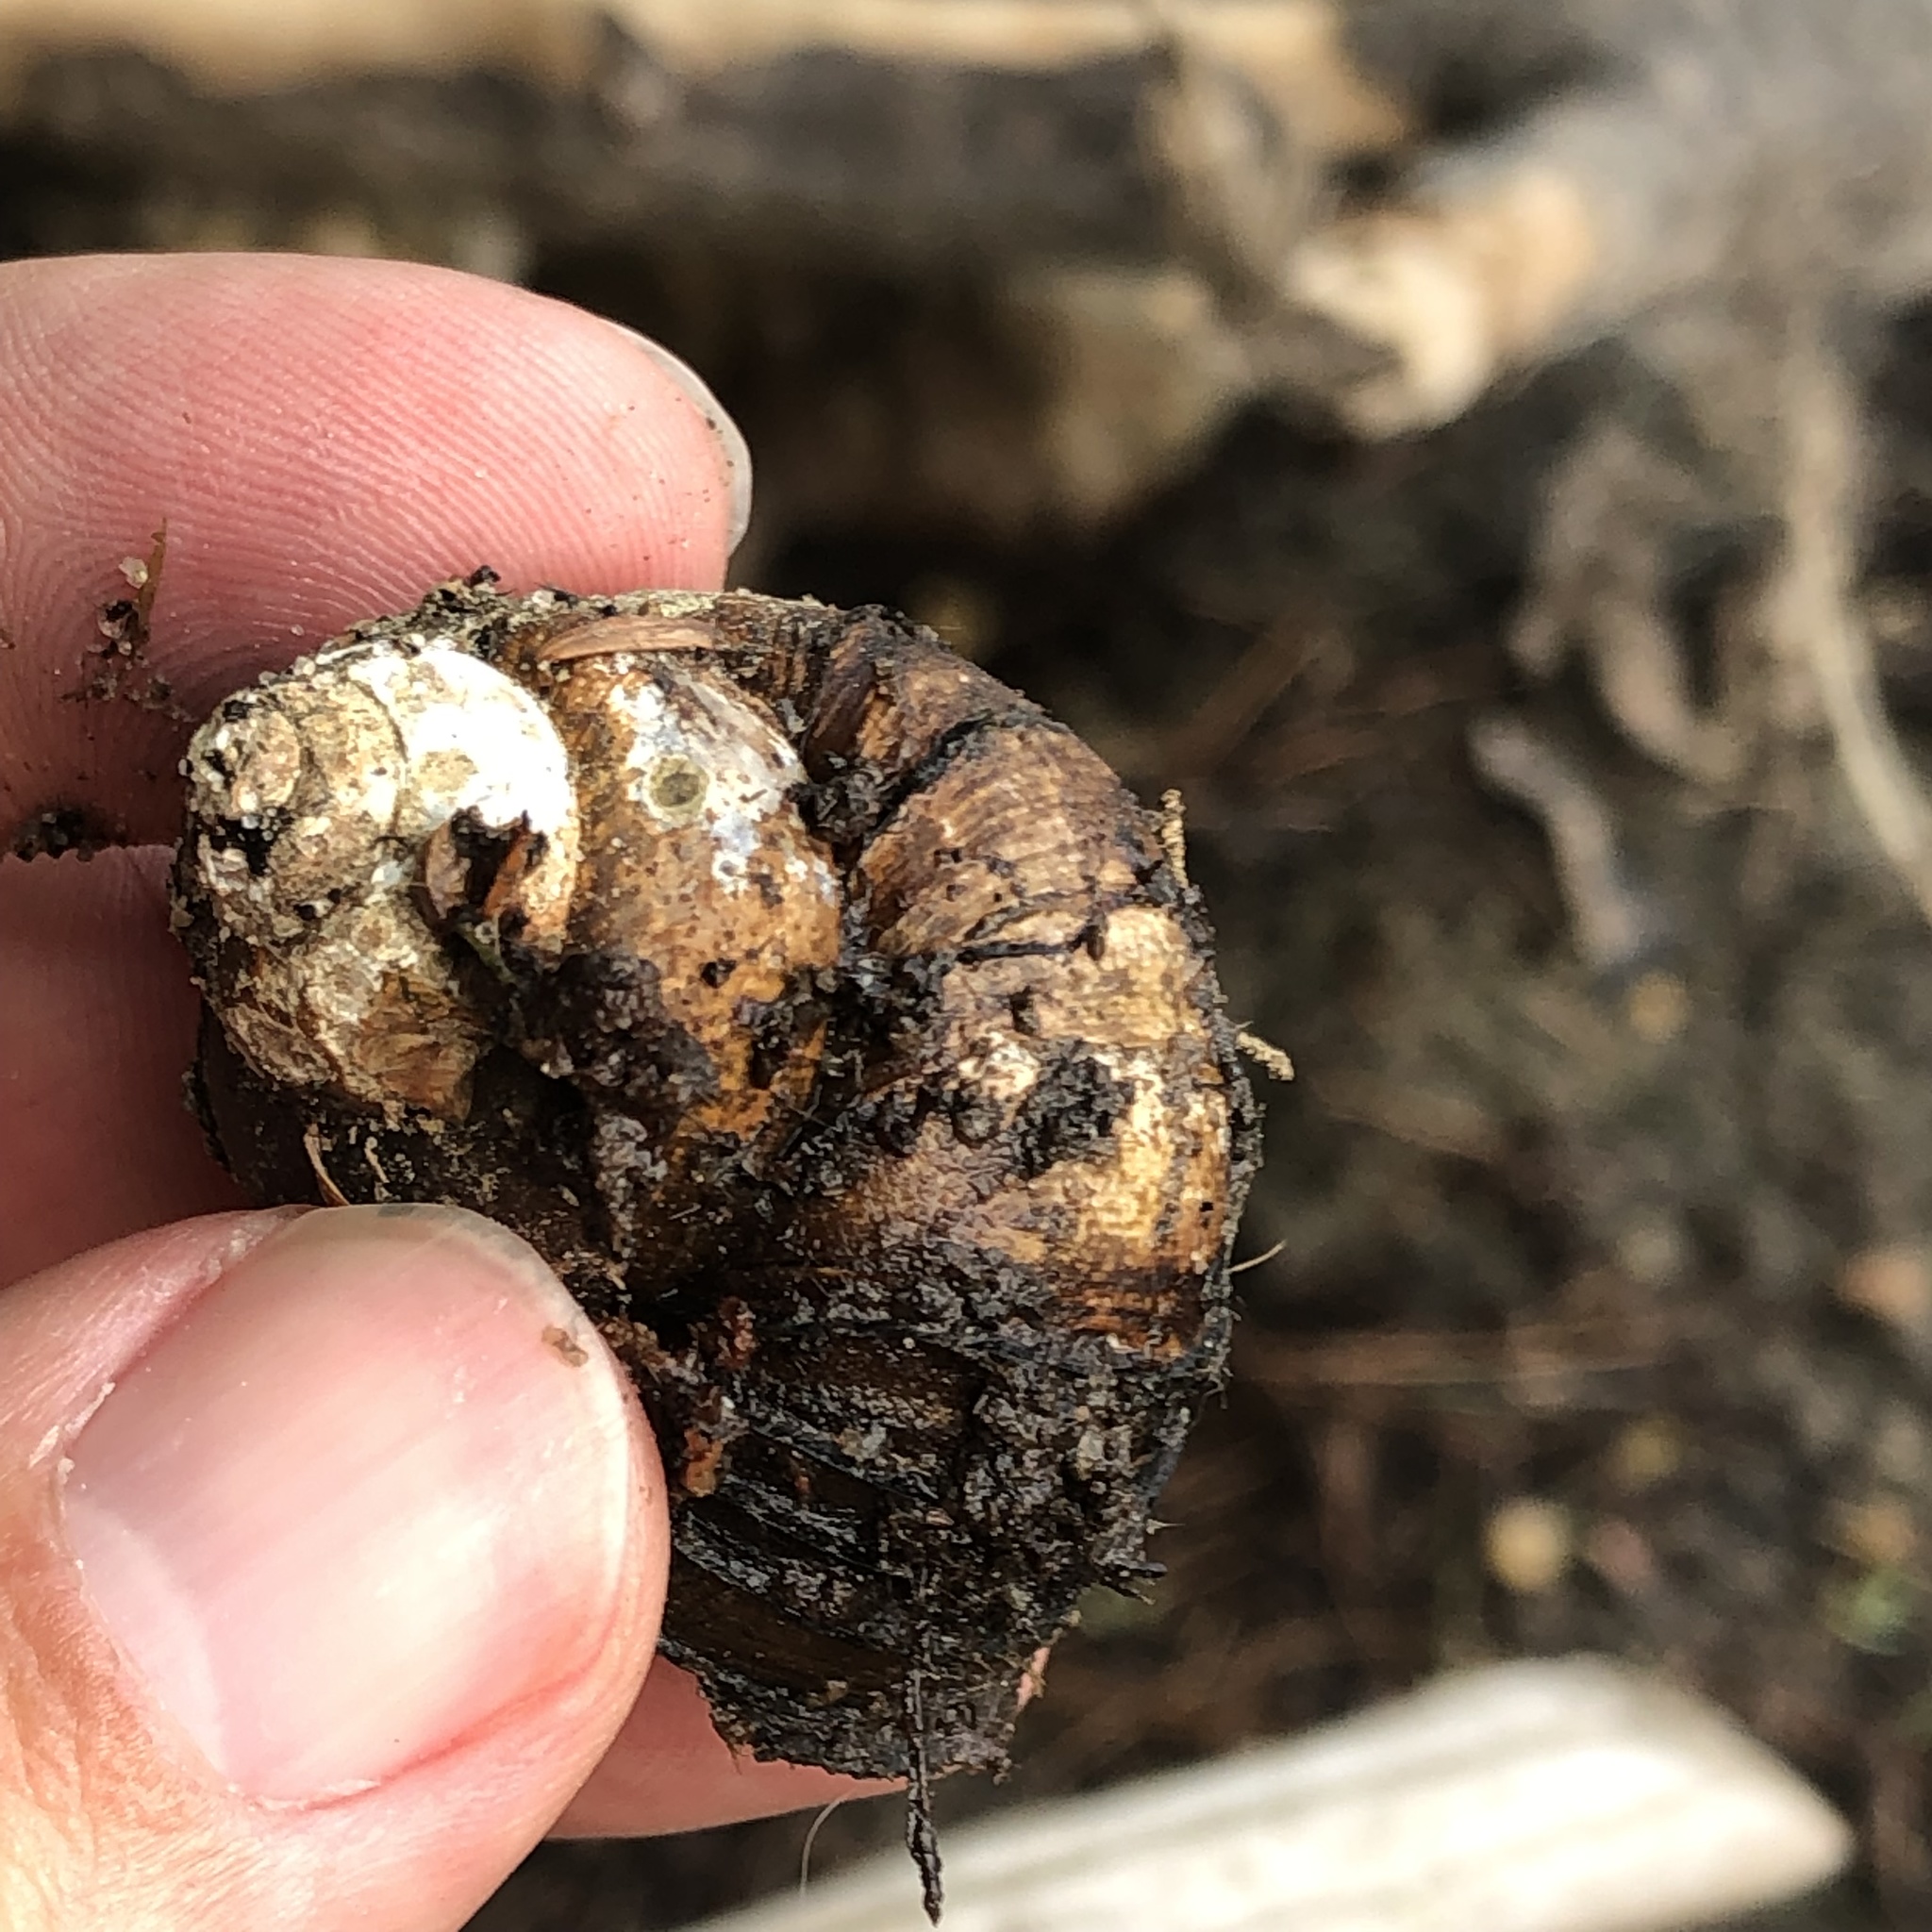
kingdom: Animalia
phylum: Mollusca
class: Gastropoda
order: Architaenioglossa
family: Viviparidae
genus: Cipangopaludina
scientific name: Cipangopaludina chinensis
